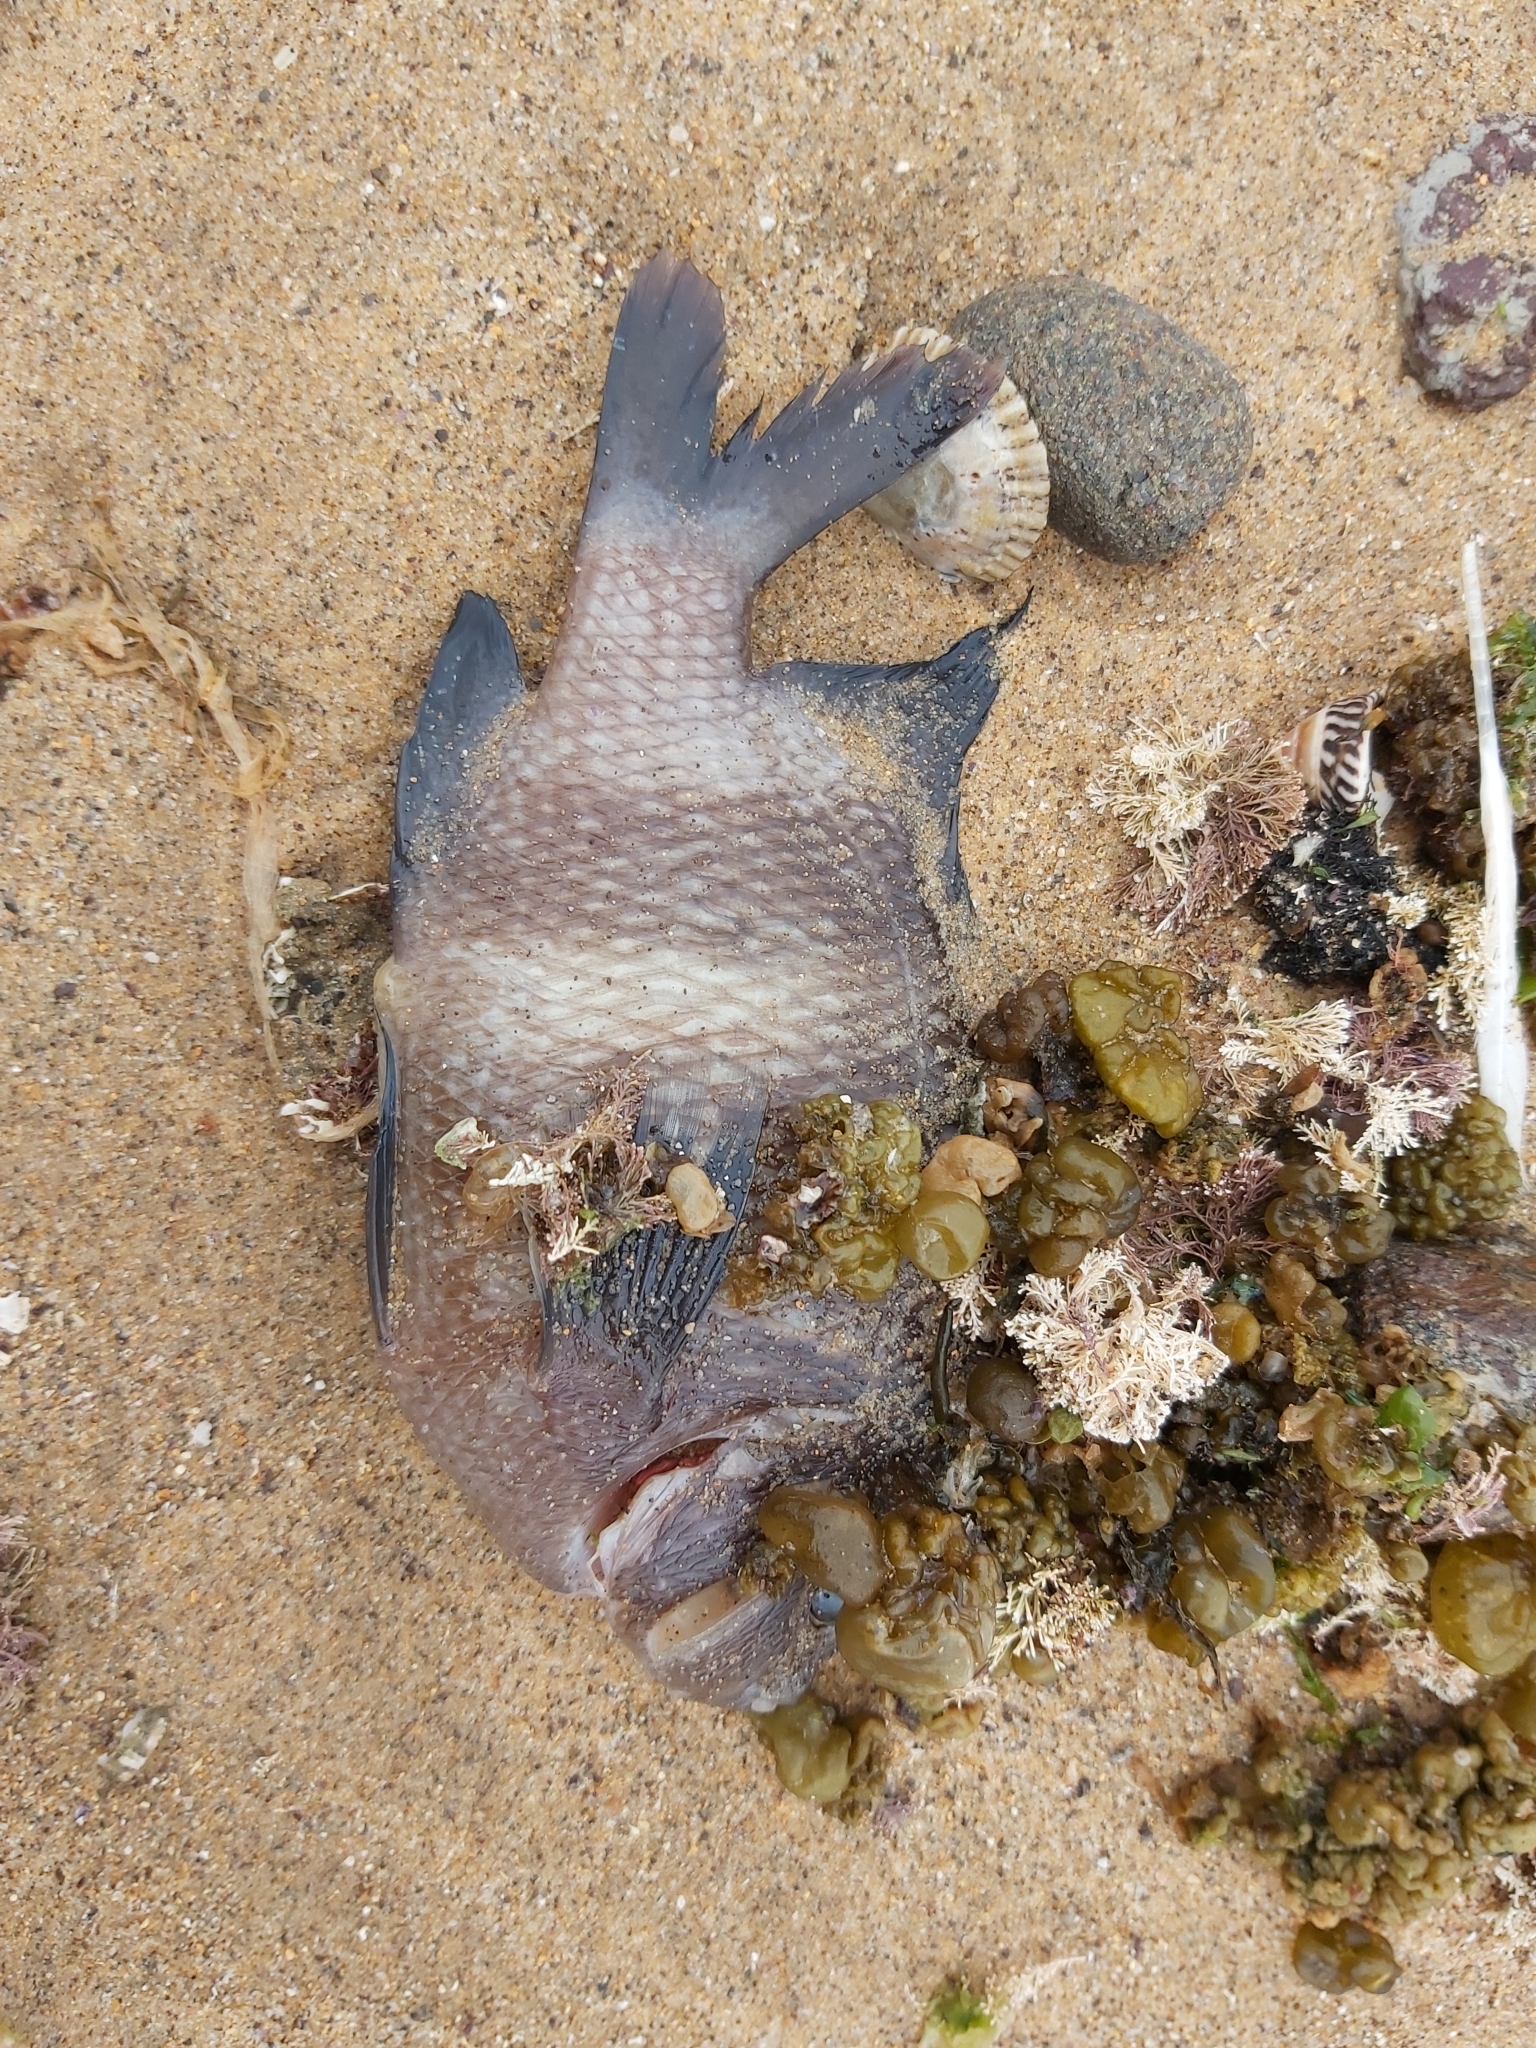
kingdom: Animalia
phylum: Chordata
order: Perciformes
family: Pomacentridae
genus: Parma
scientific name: Parma unifasciata
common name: Girdled parma
